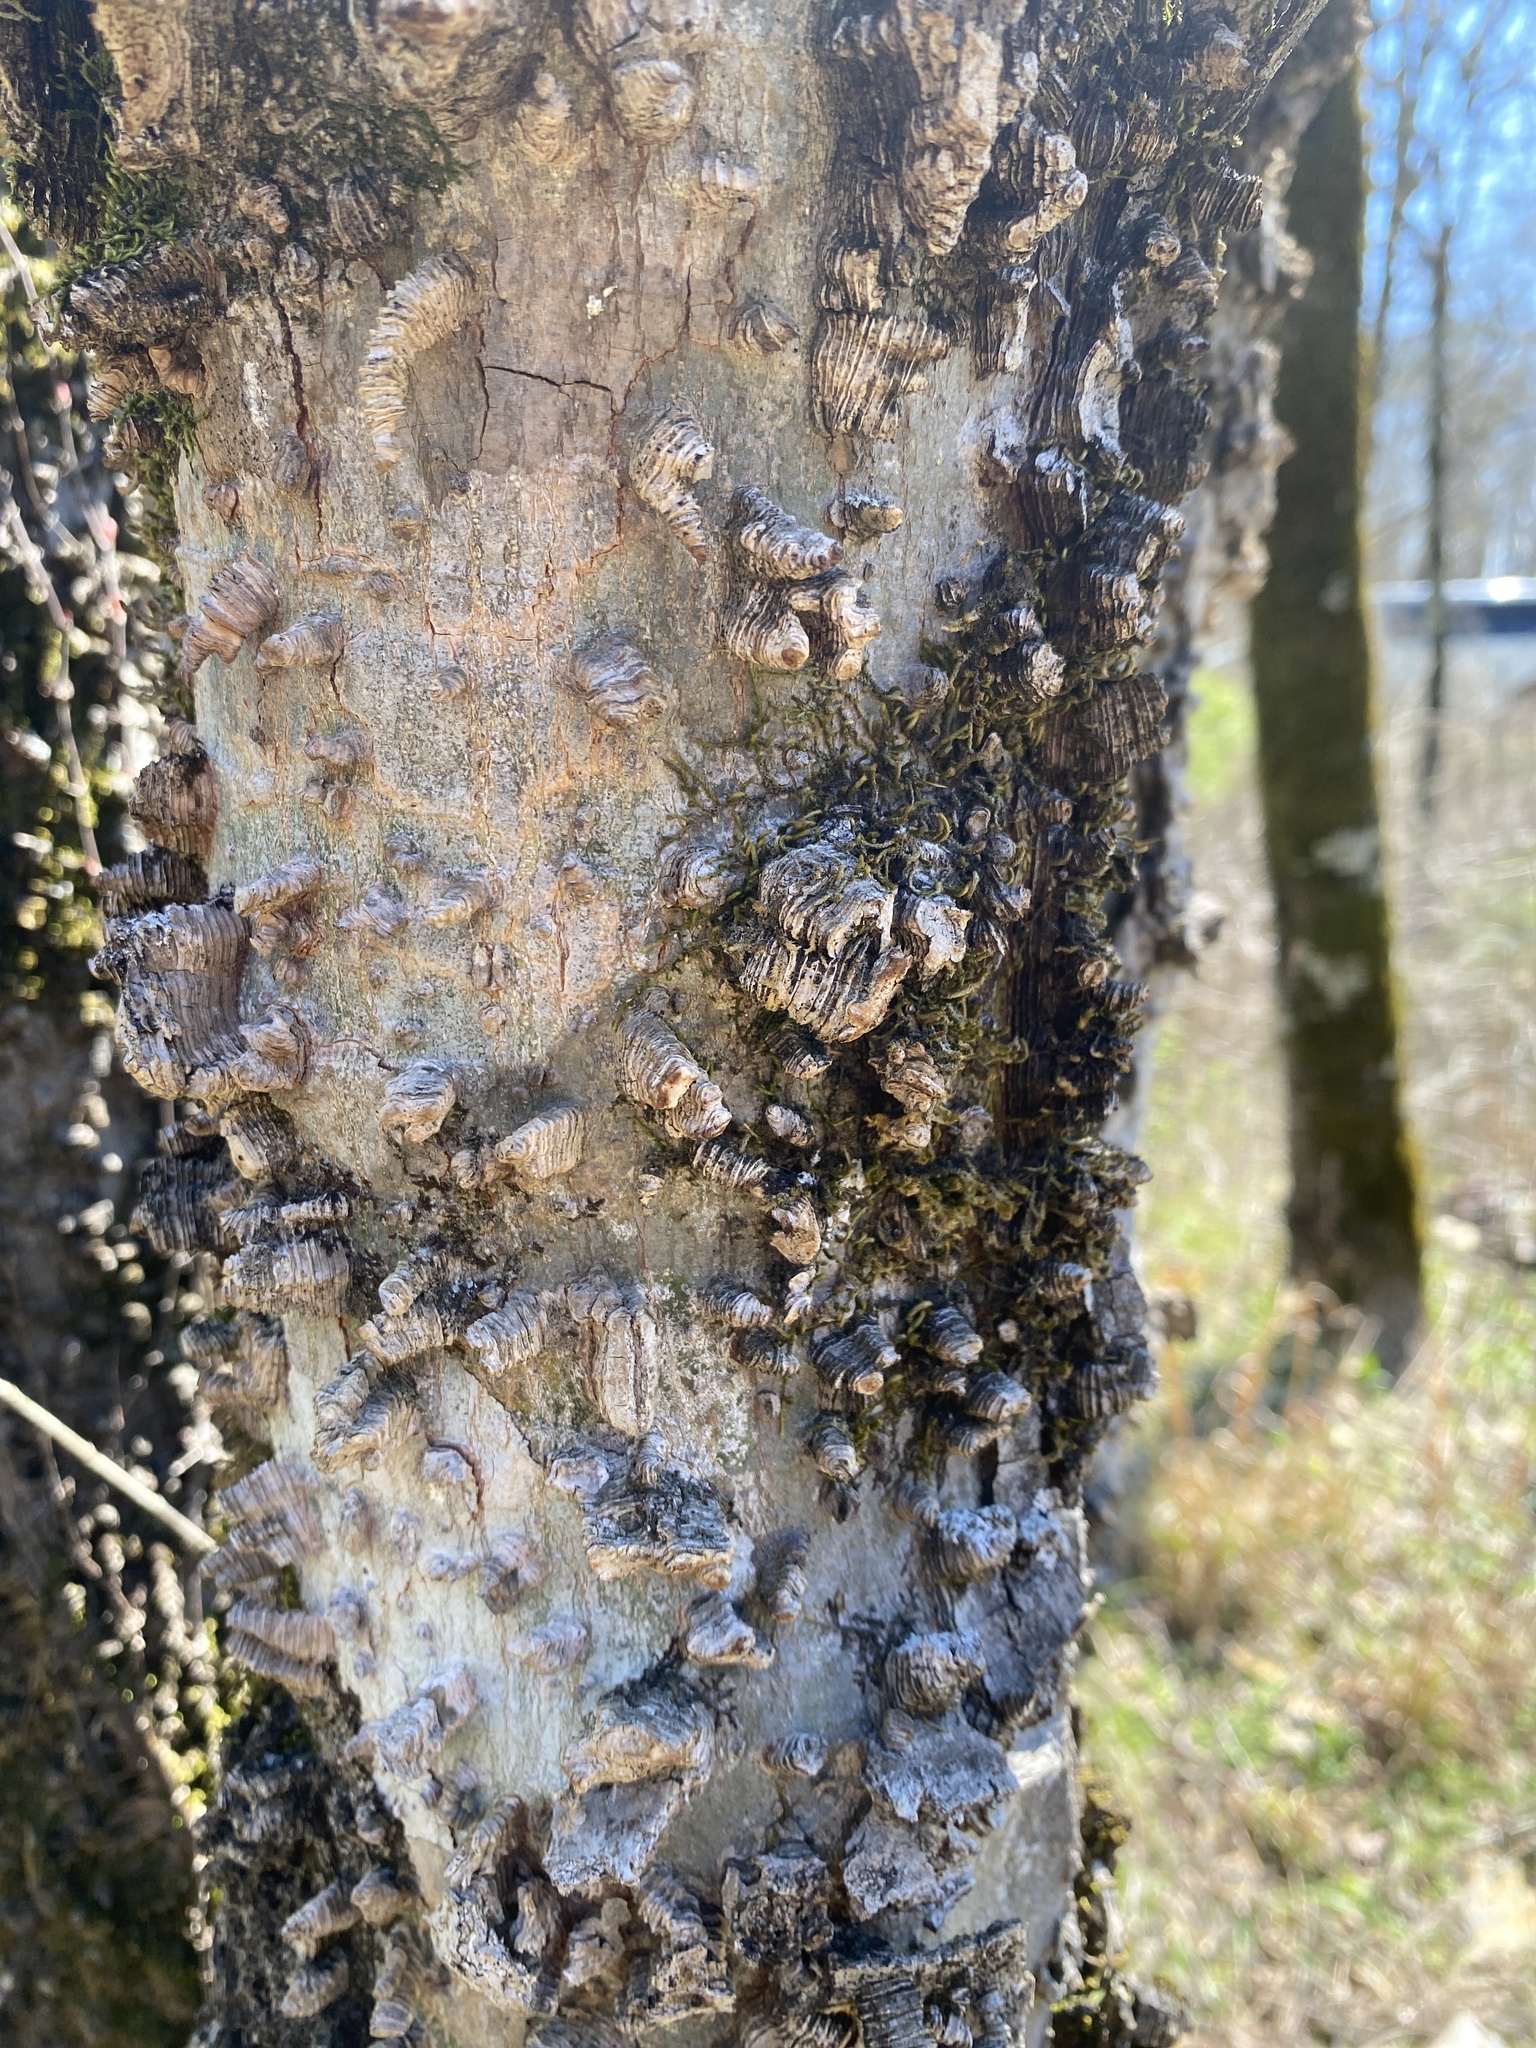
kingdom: Plantae
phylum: Tracheophyta
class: Magnoliopsida
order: Rosales
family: Cannabaceae
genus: Celtis
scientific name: Celtis laevigata
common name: Sugarberry
